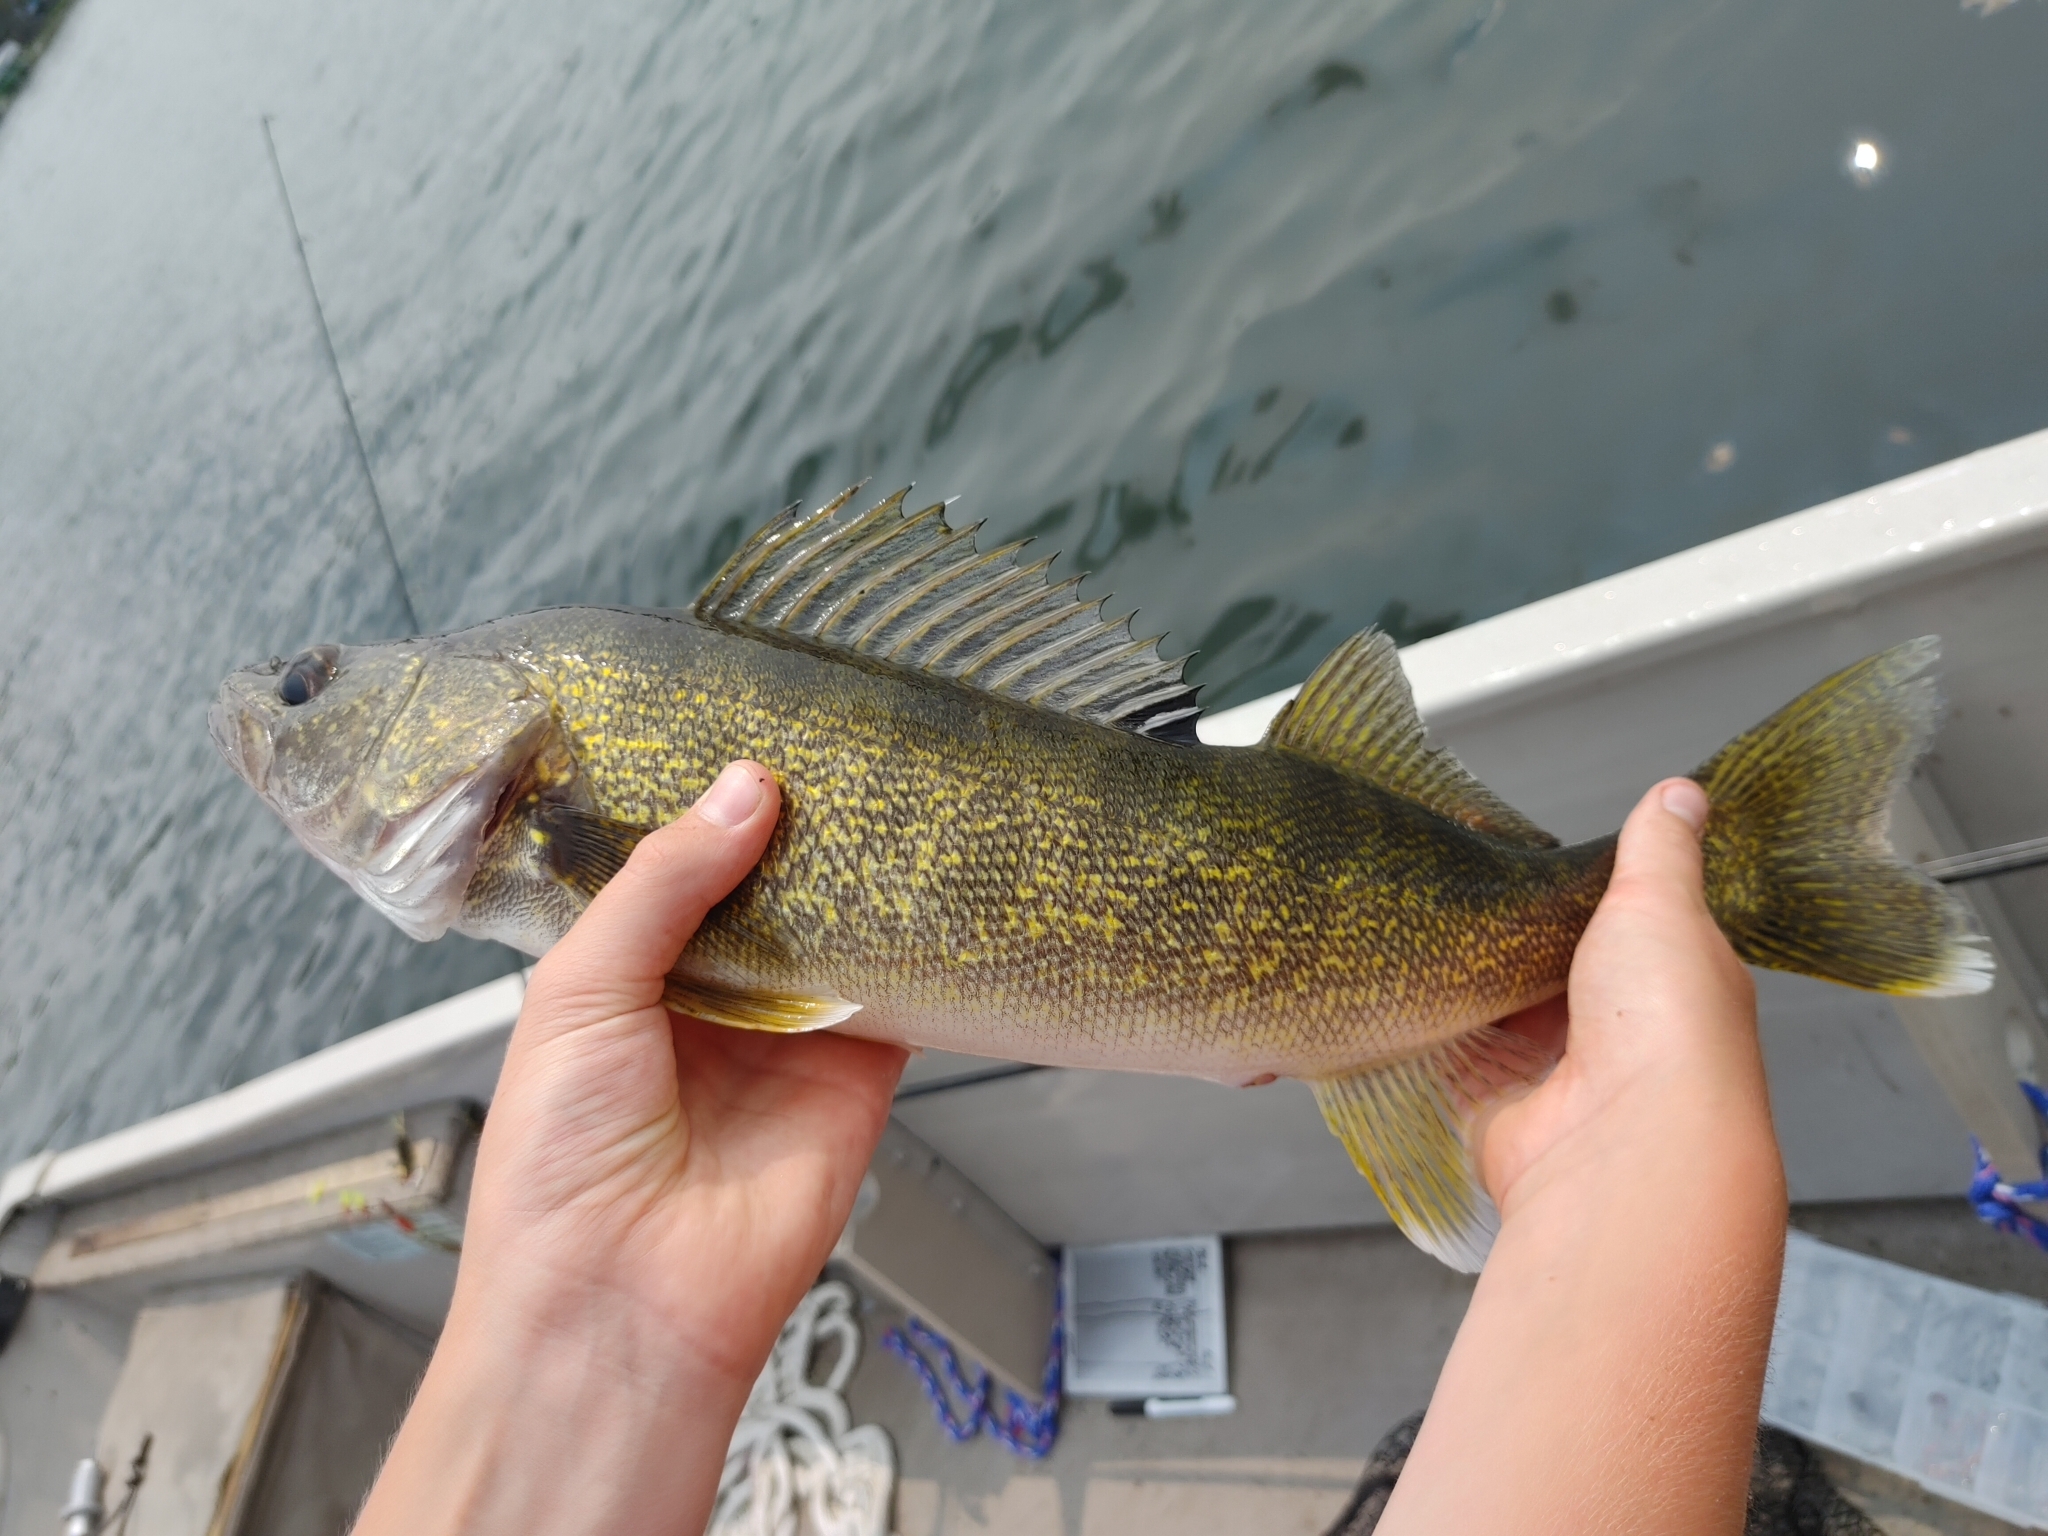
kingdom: Animalia
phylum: Chordata
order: Perciformes
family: Percidae
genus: Sander
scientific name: Sander vitreus
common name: Walleye
